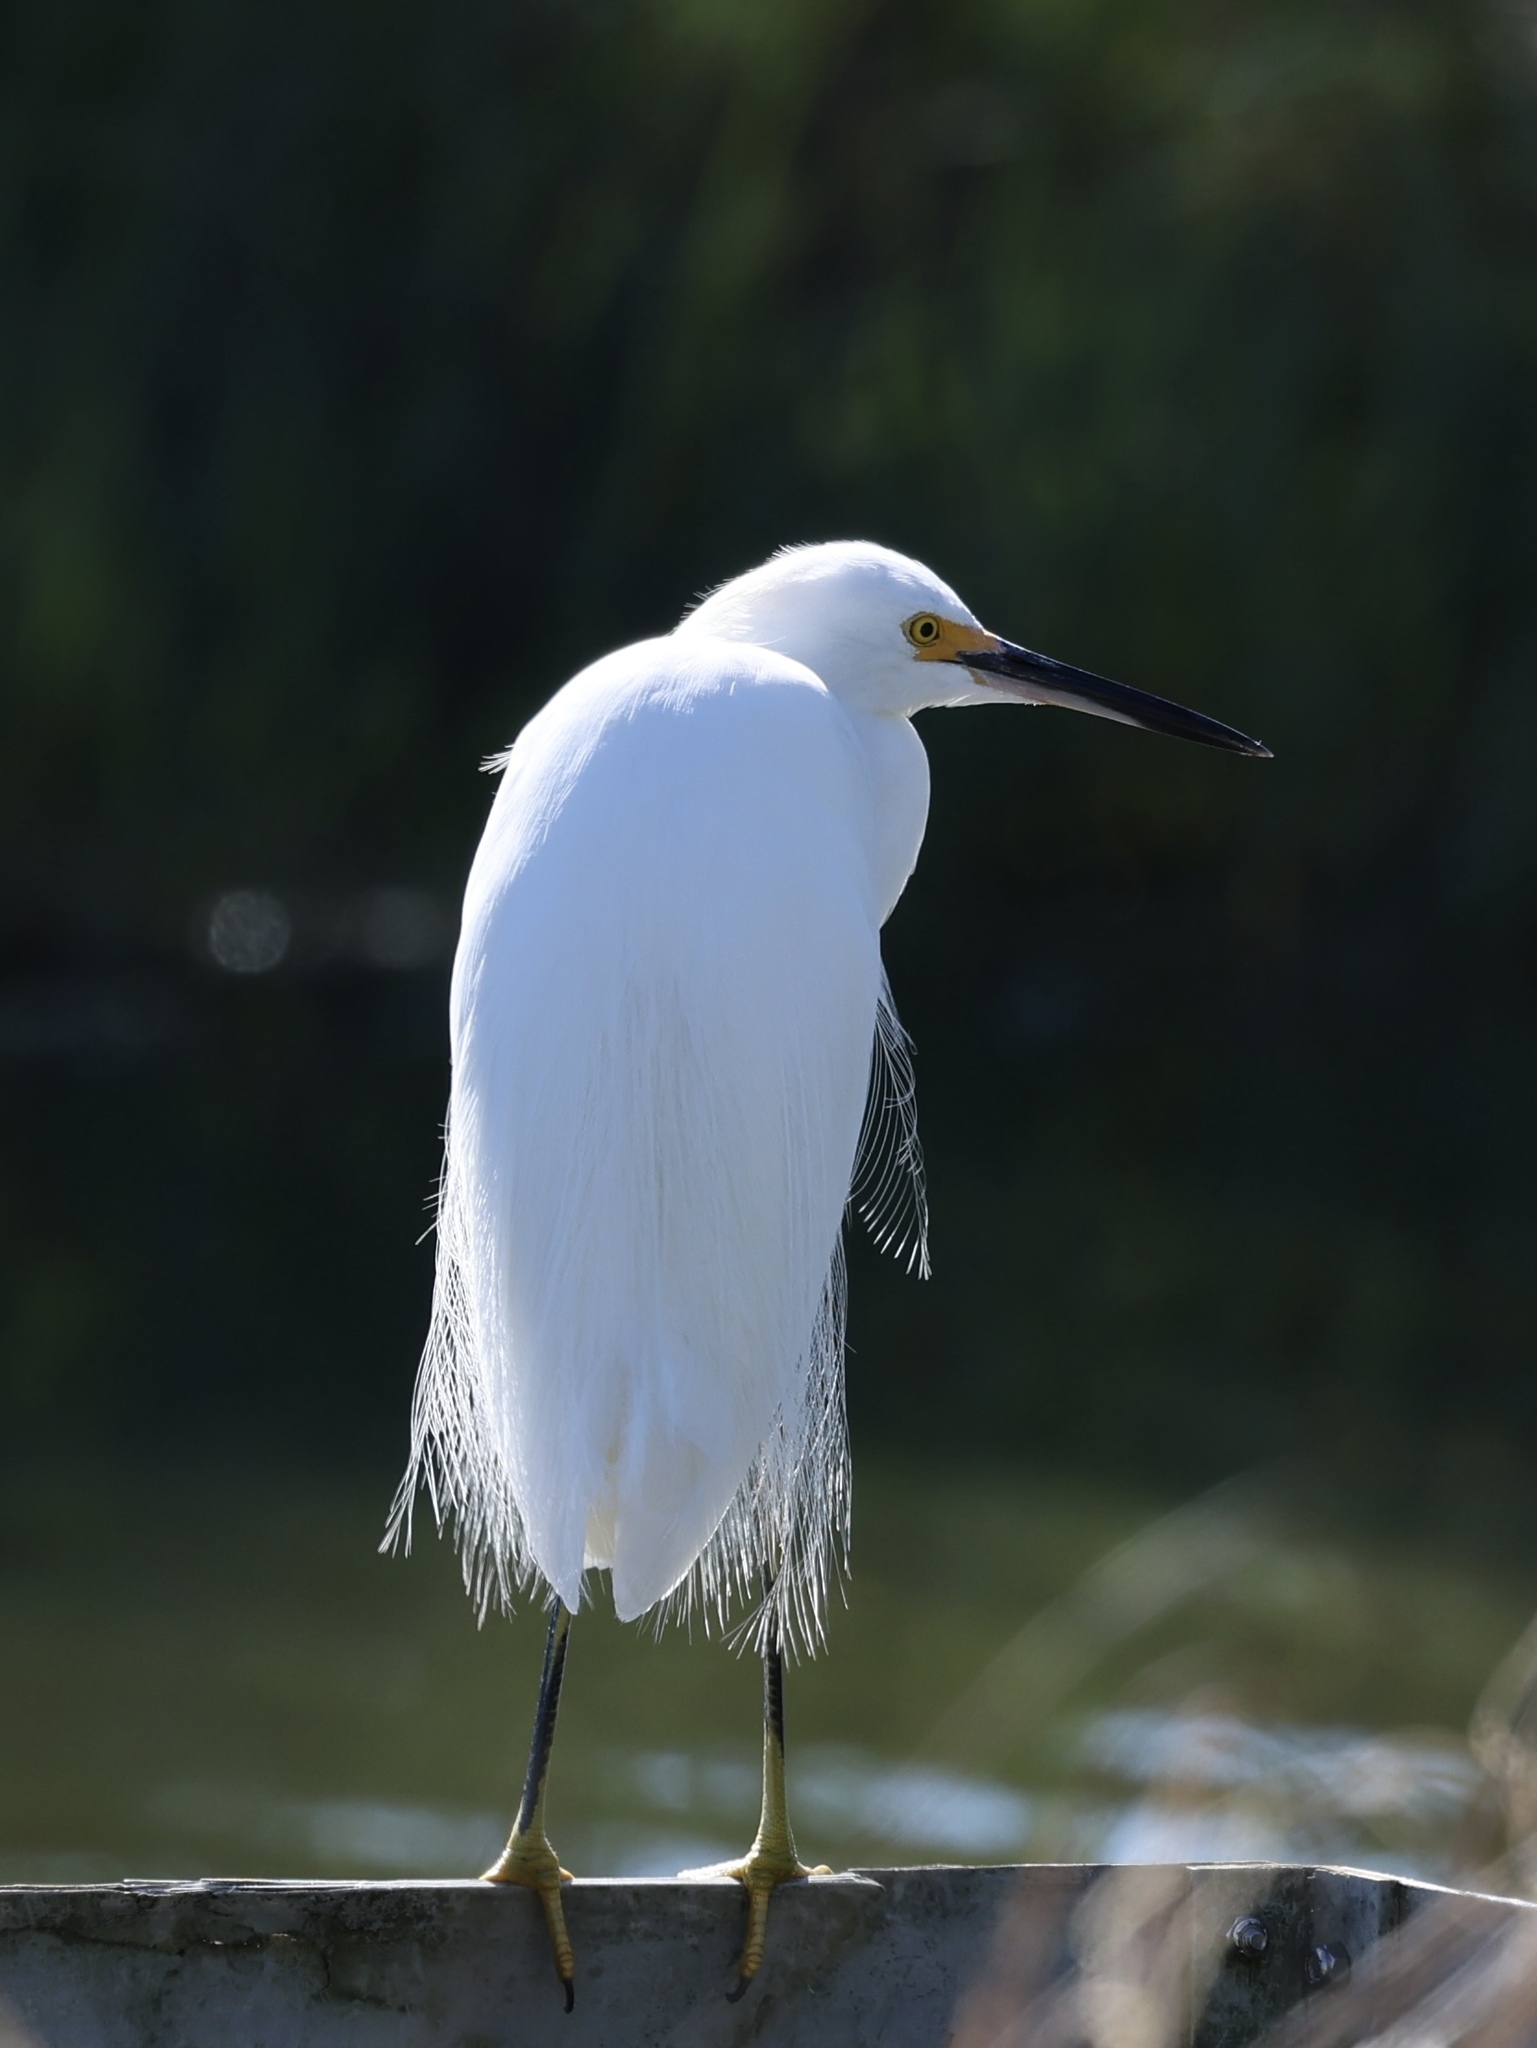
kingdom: Animalia
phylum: Chordata
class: Aves
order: Pelecaniformes
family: Ardeidae
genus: Egretta
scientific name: Egretta thula
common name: Snowy egret
